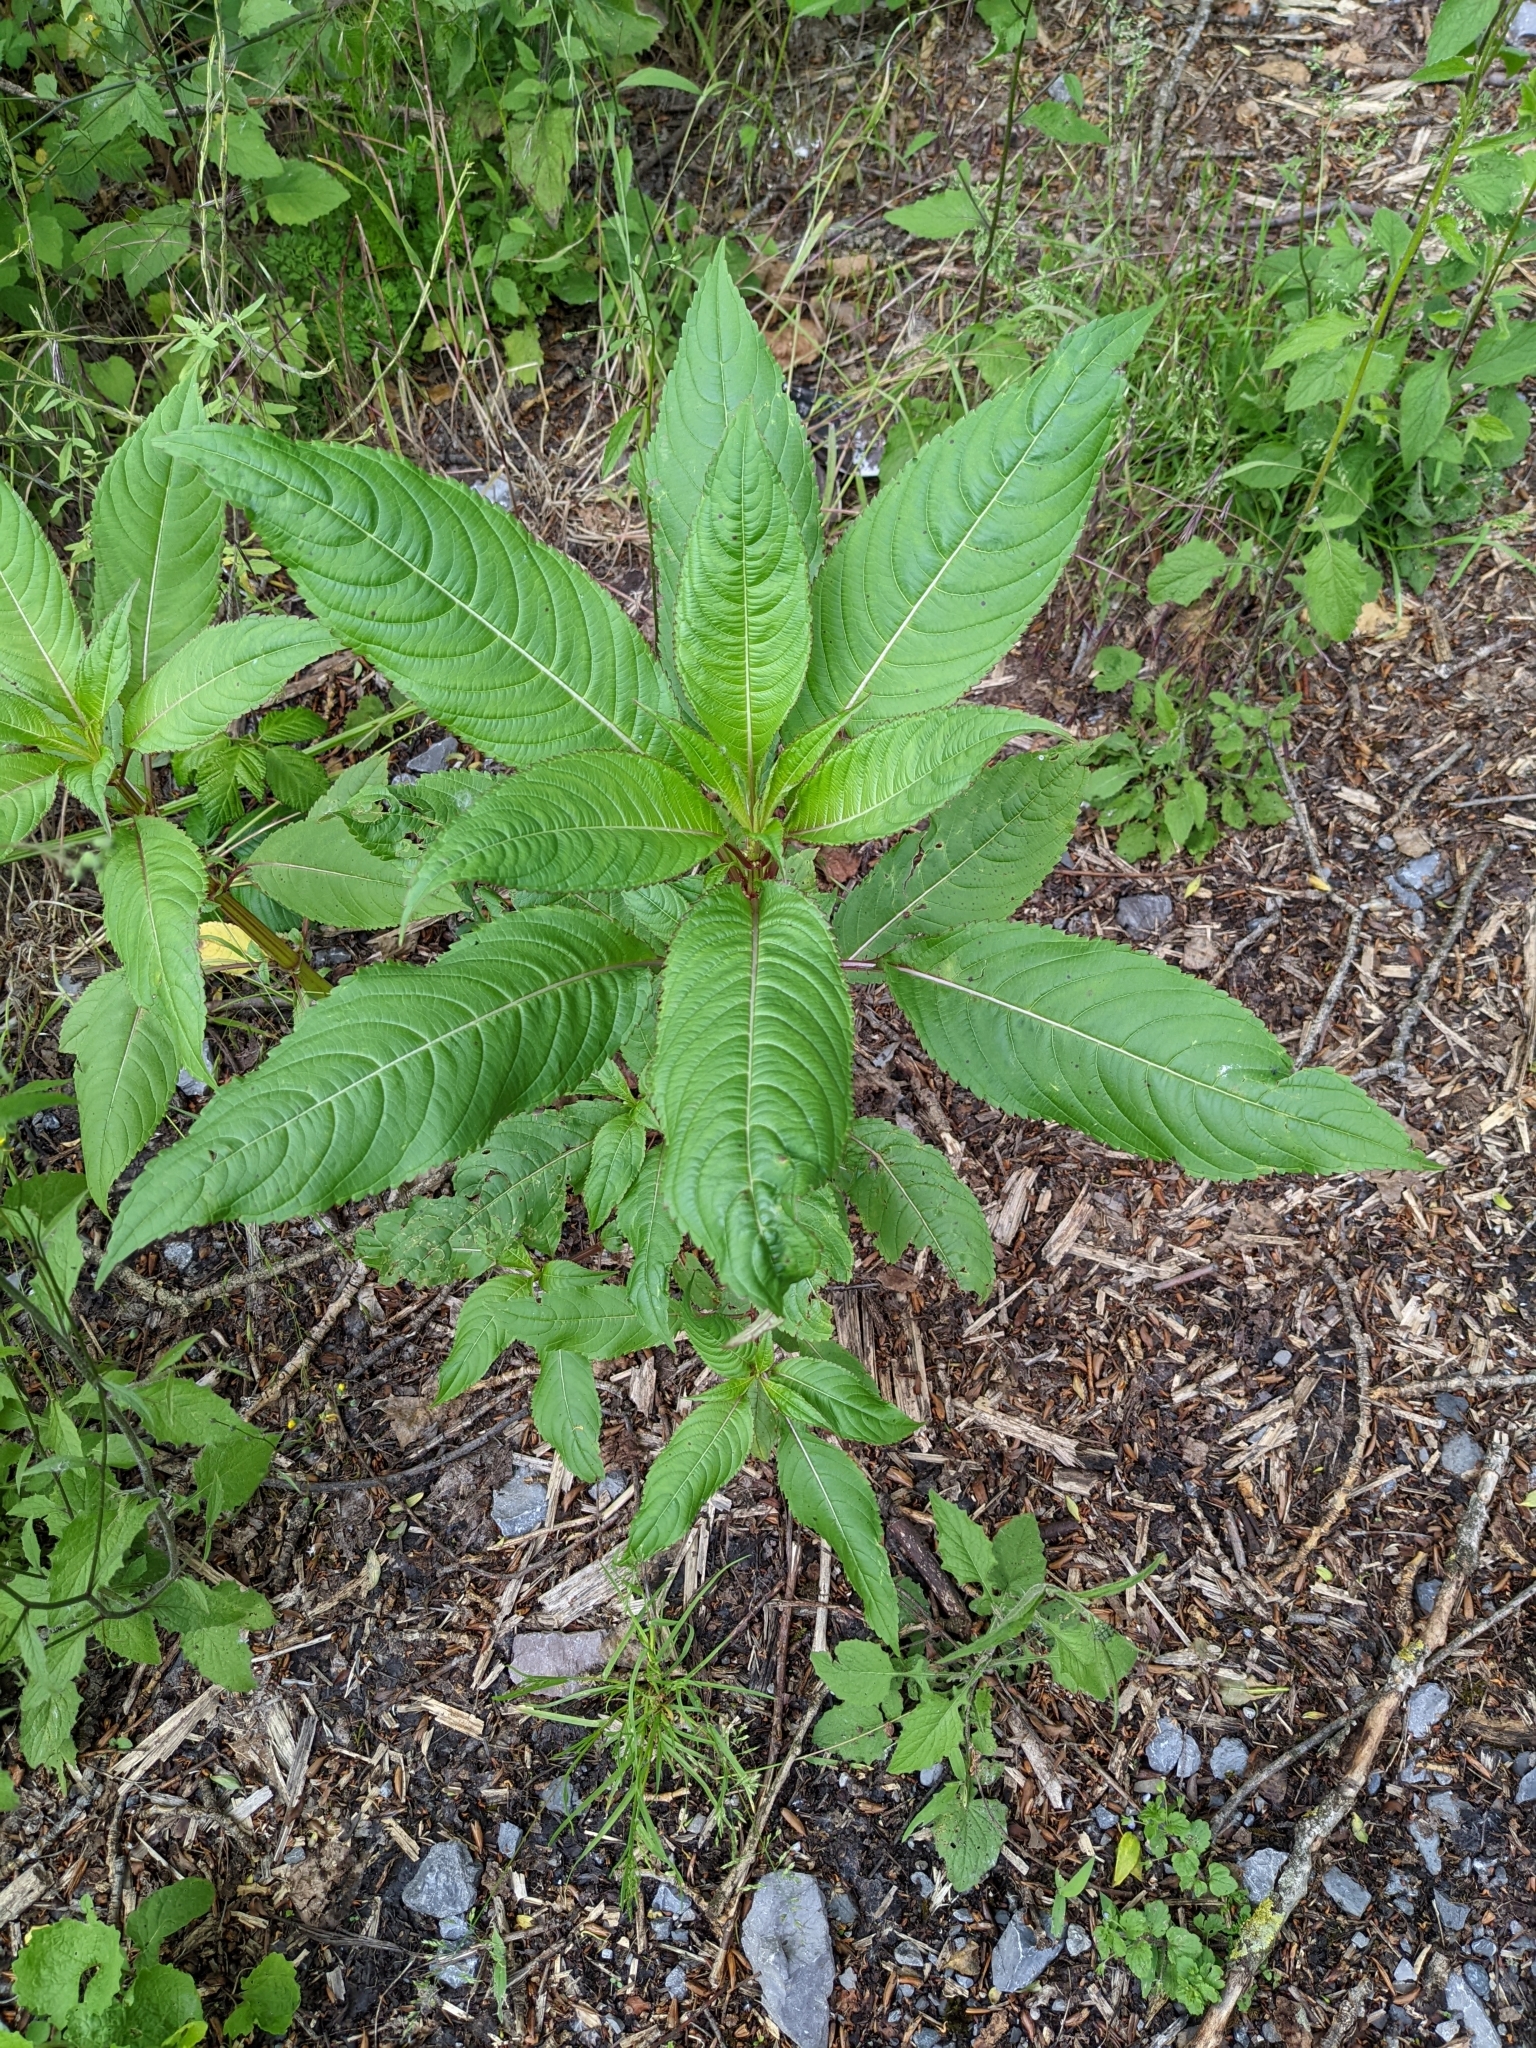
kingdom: Plantae
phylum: Tracheophyta
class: Magnoliopsida
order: Ericales
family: Balsaminaceae
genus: Impatiens
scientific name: Impatiens glandulifera
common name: Himalayan balsam
